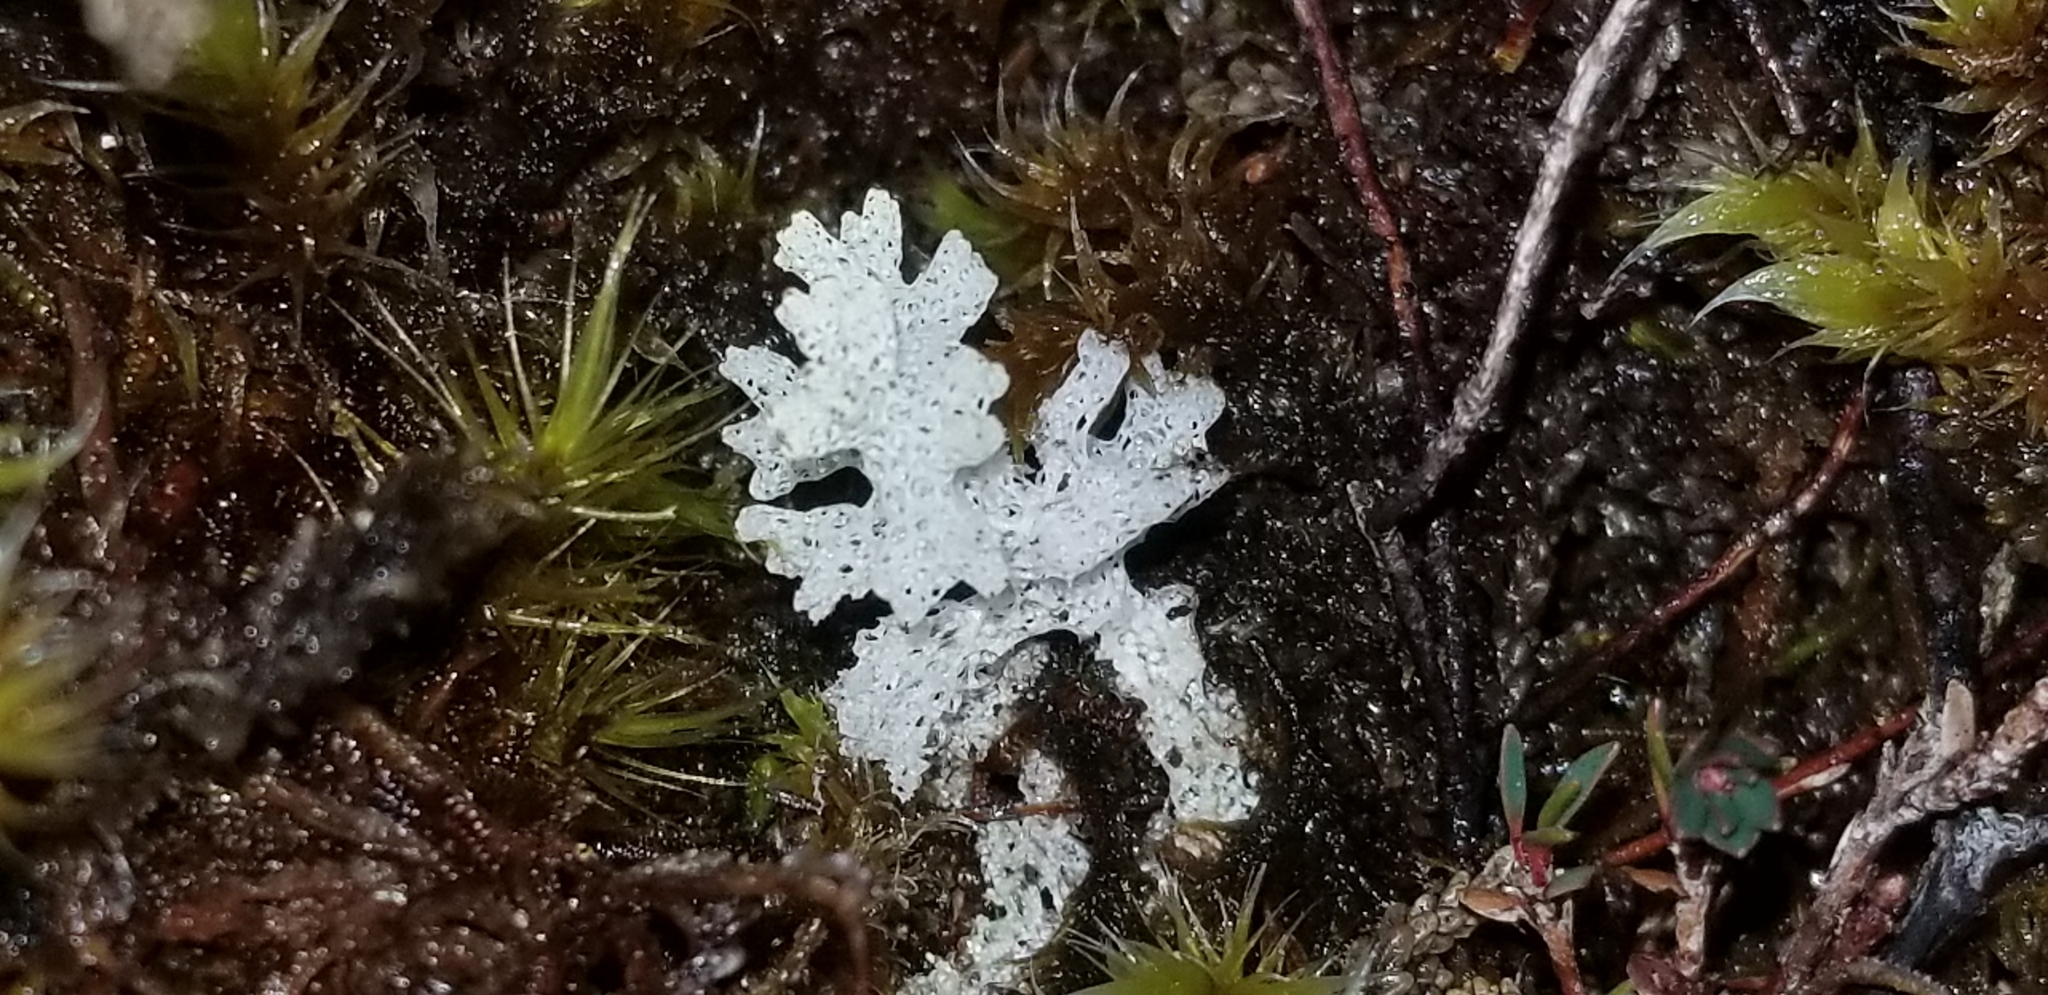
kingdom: Fungi
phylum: Ascomycota
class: Lecanoromycetes
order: Lecanorales
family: Cladoniaceae
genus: Pulchrocladia
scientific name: Pulchrocladia retipora
